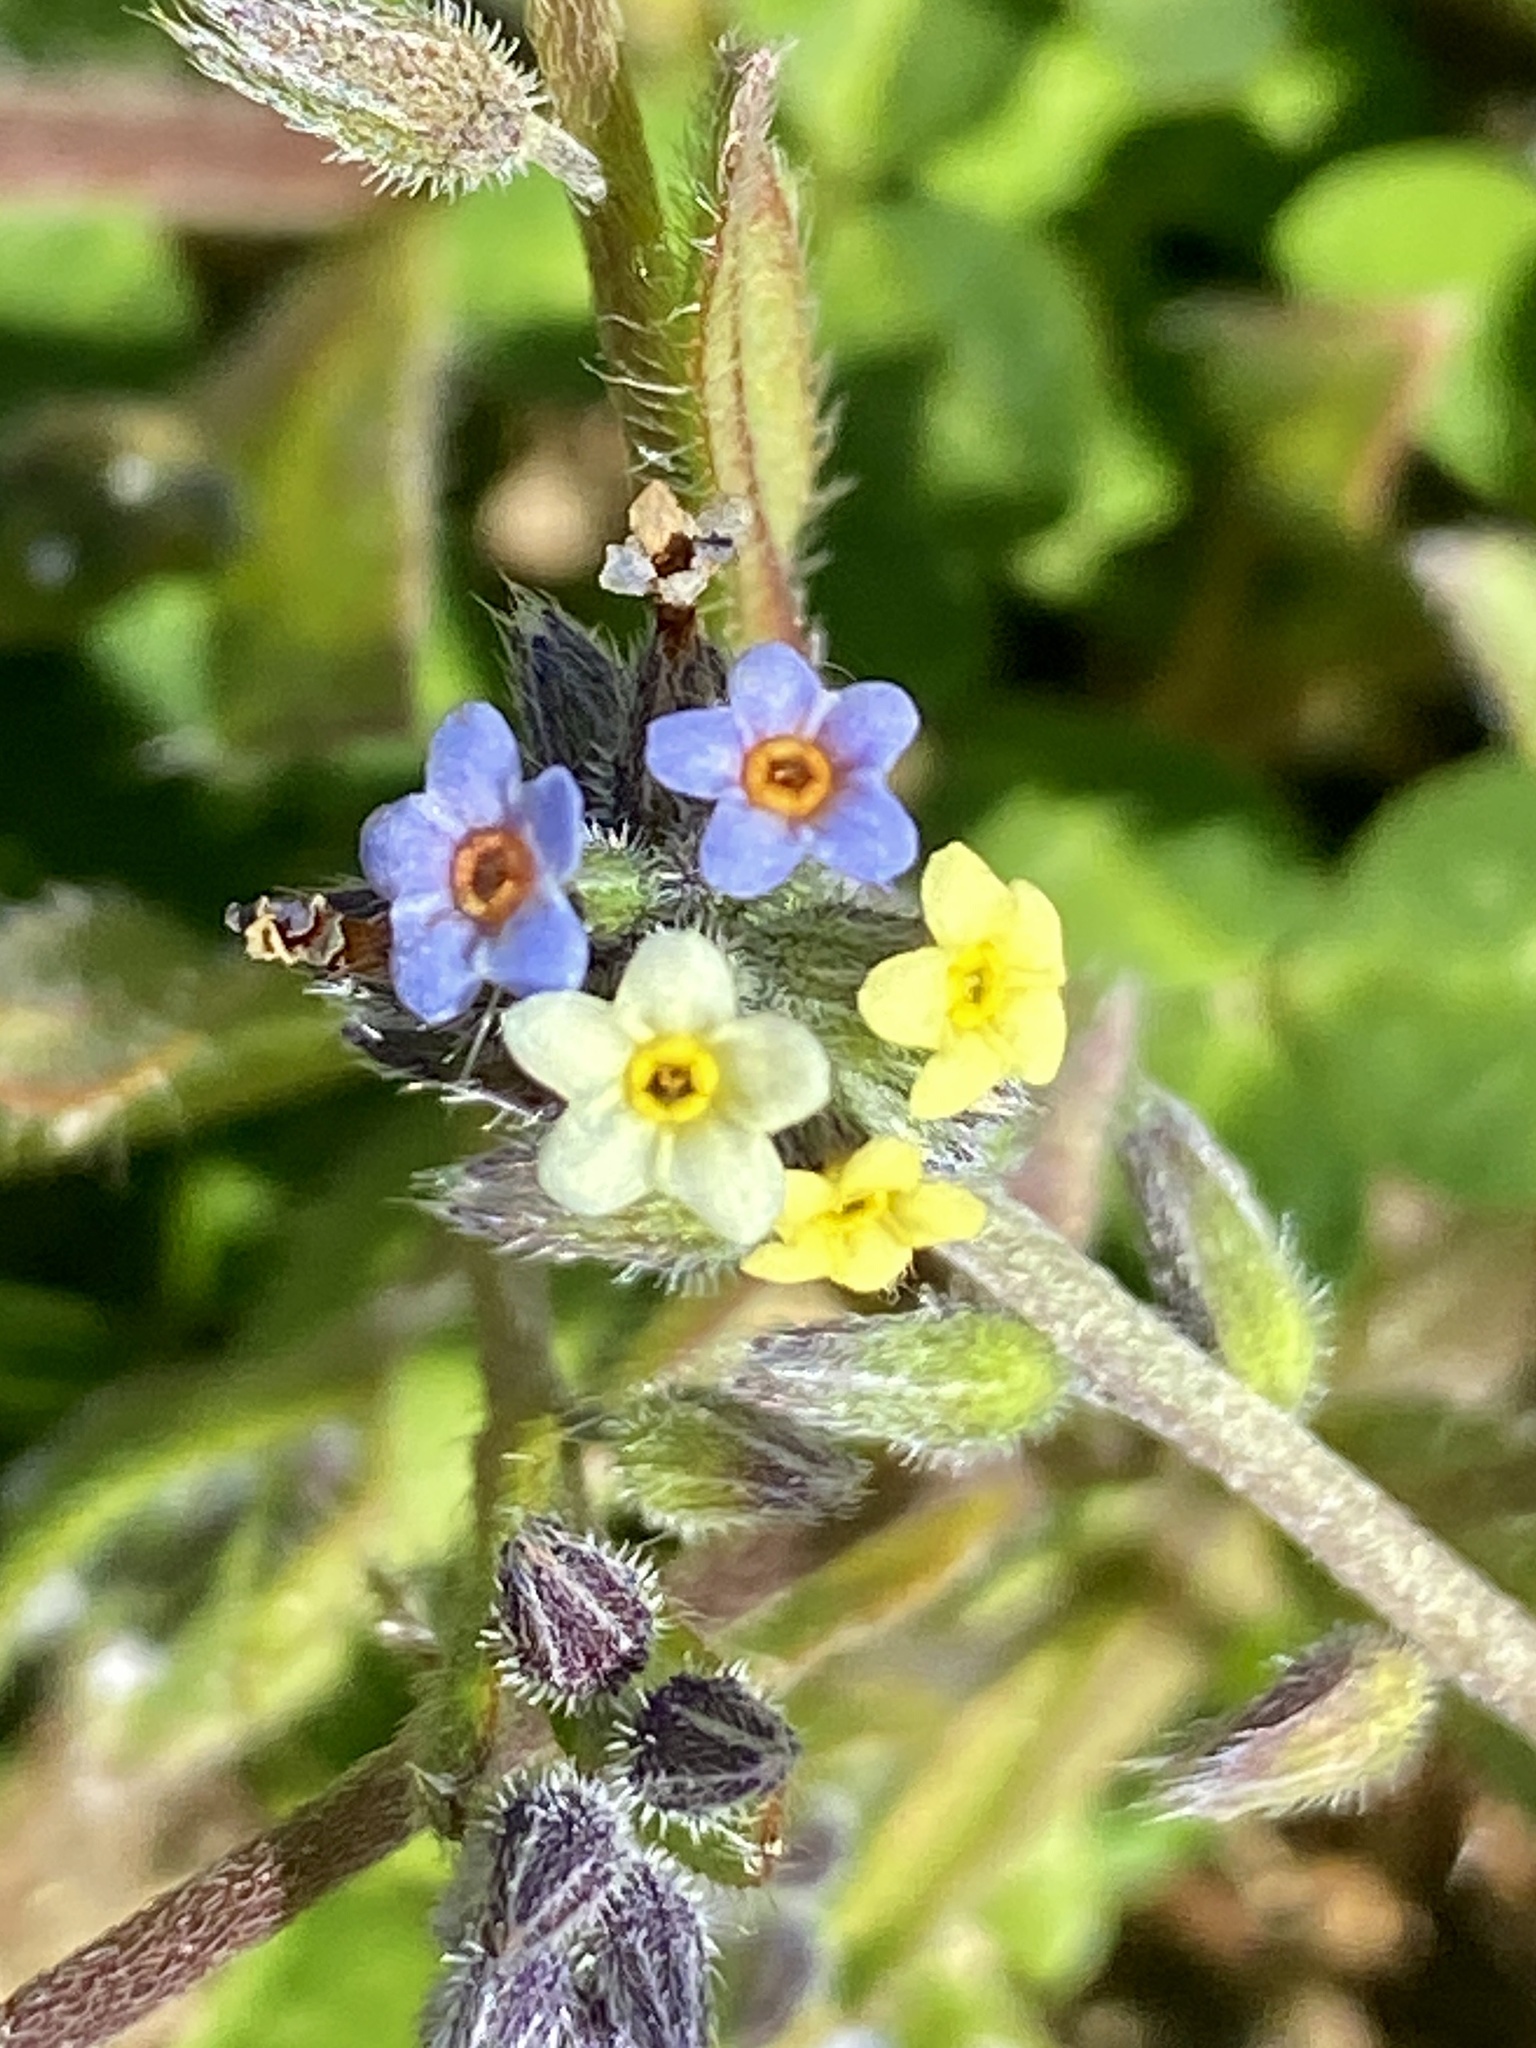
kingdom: Plantae
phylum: Tracheophyta
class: Magnoliopsida
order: Boraginales
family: Boraginaceae
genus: Myosotis
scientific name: Myosotis discolor
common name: Changing forget-me-not
